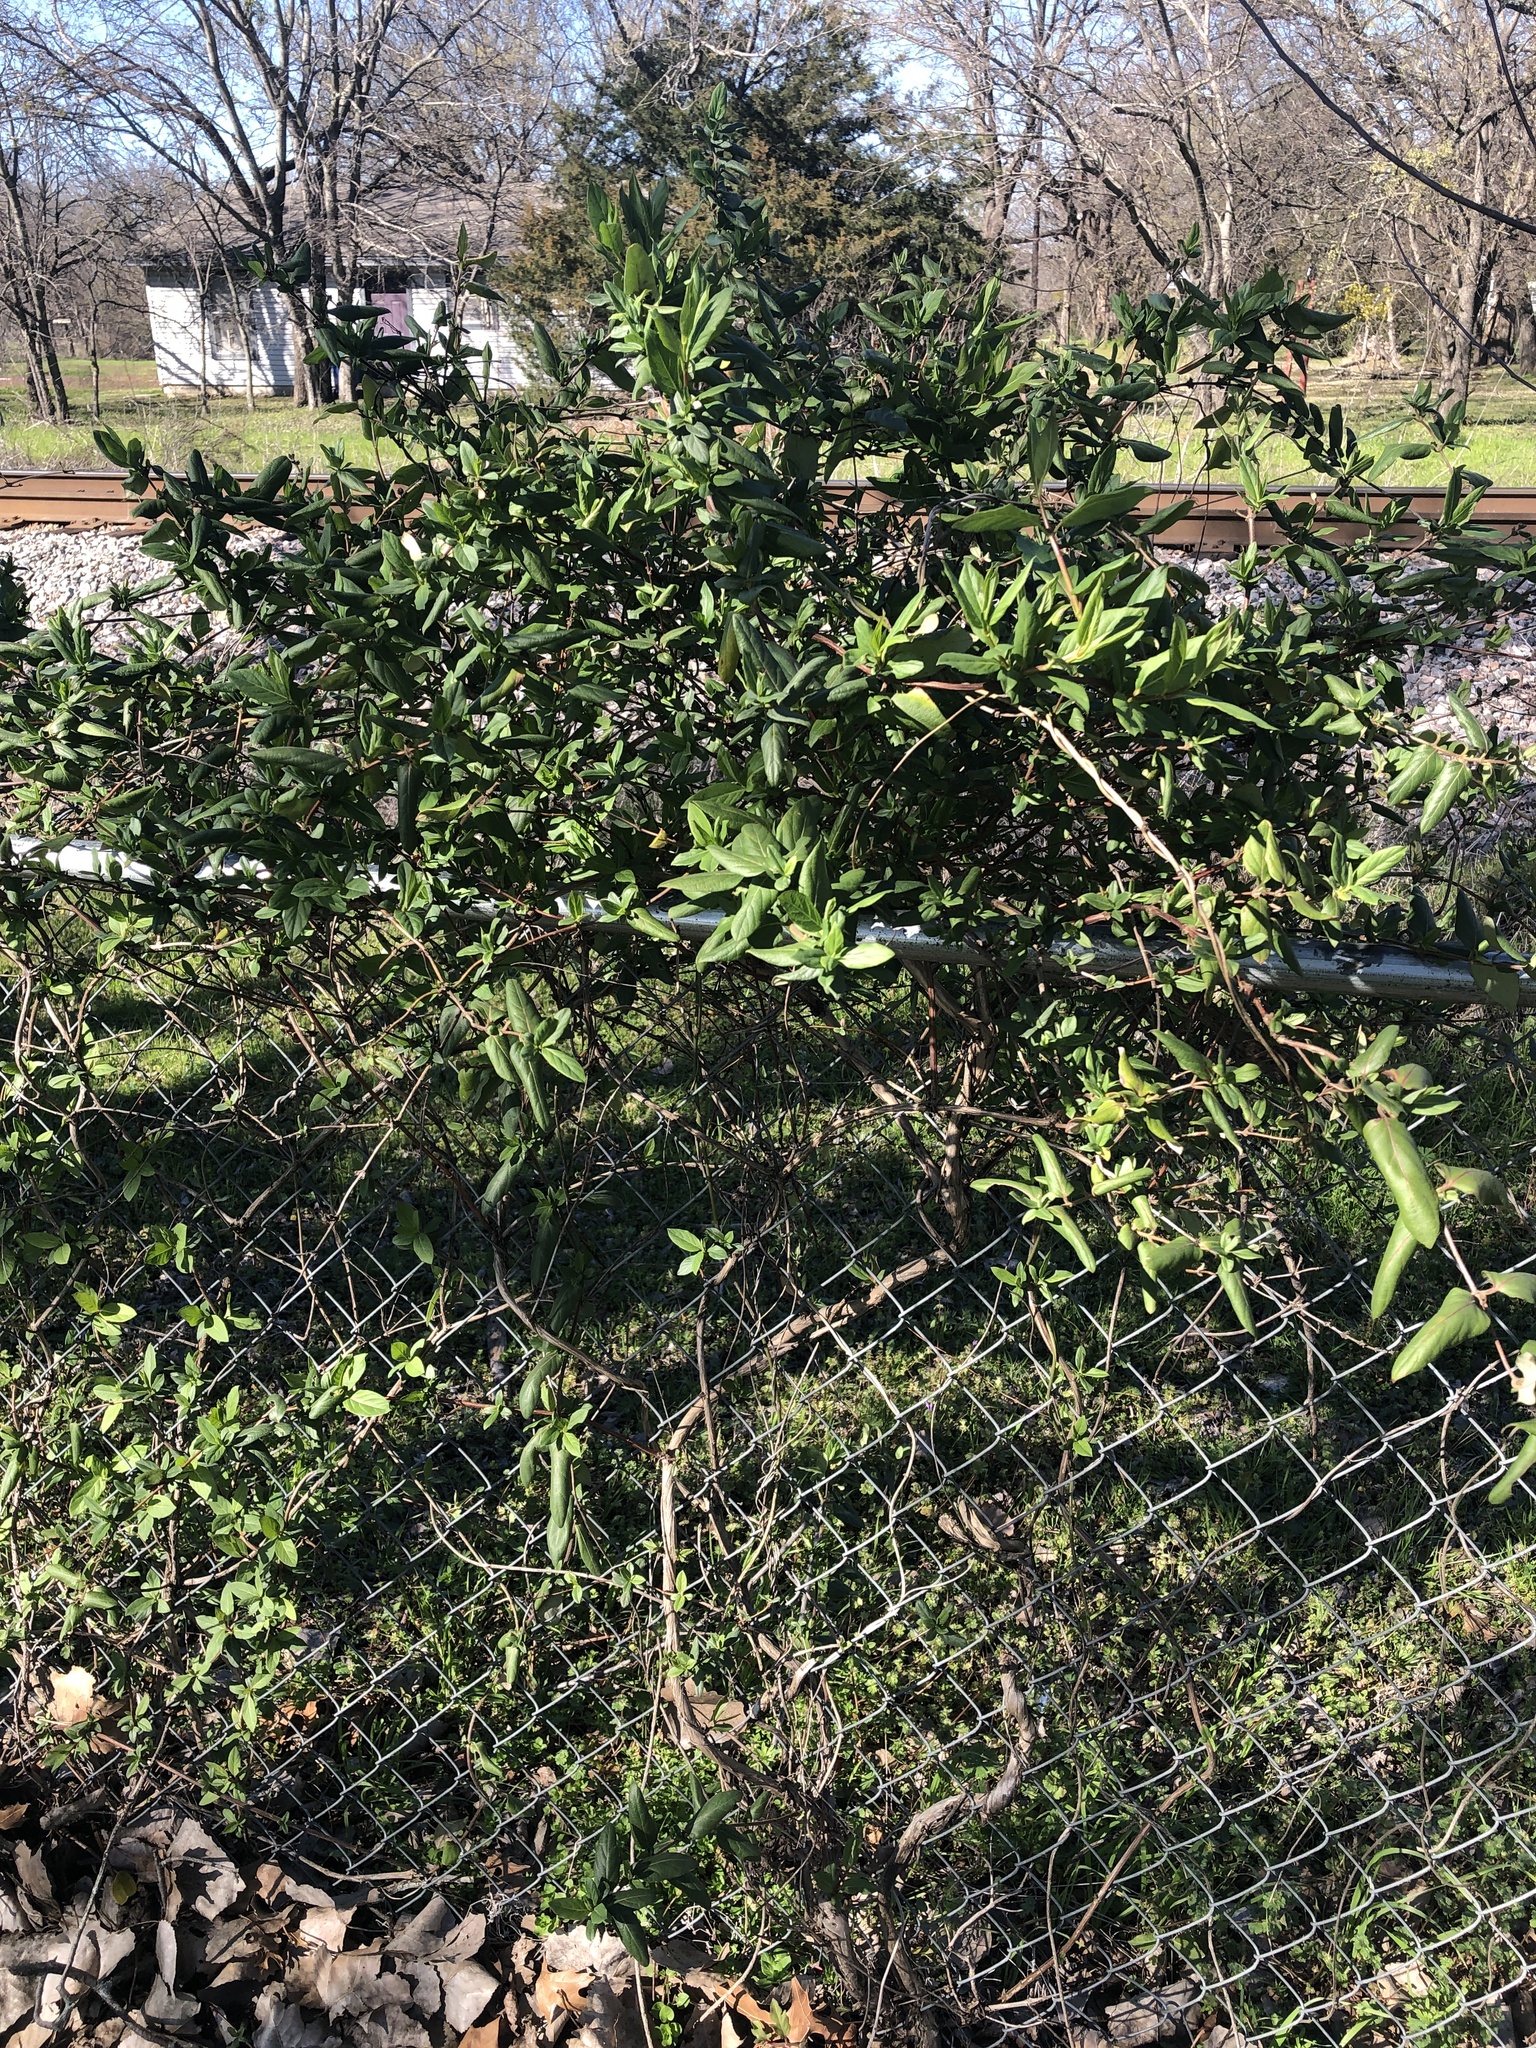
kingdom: Plantae
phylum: Tracheophyta
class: Magnoliopsida
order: Dipsacales
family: Caprifoliaceae
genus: Lonicera
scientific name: Lonicera japonica
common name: Japanese honeysuckle
